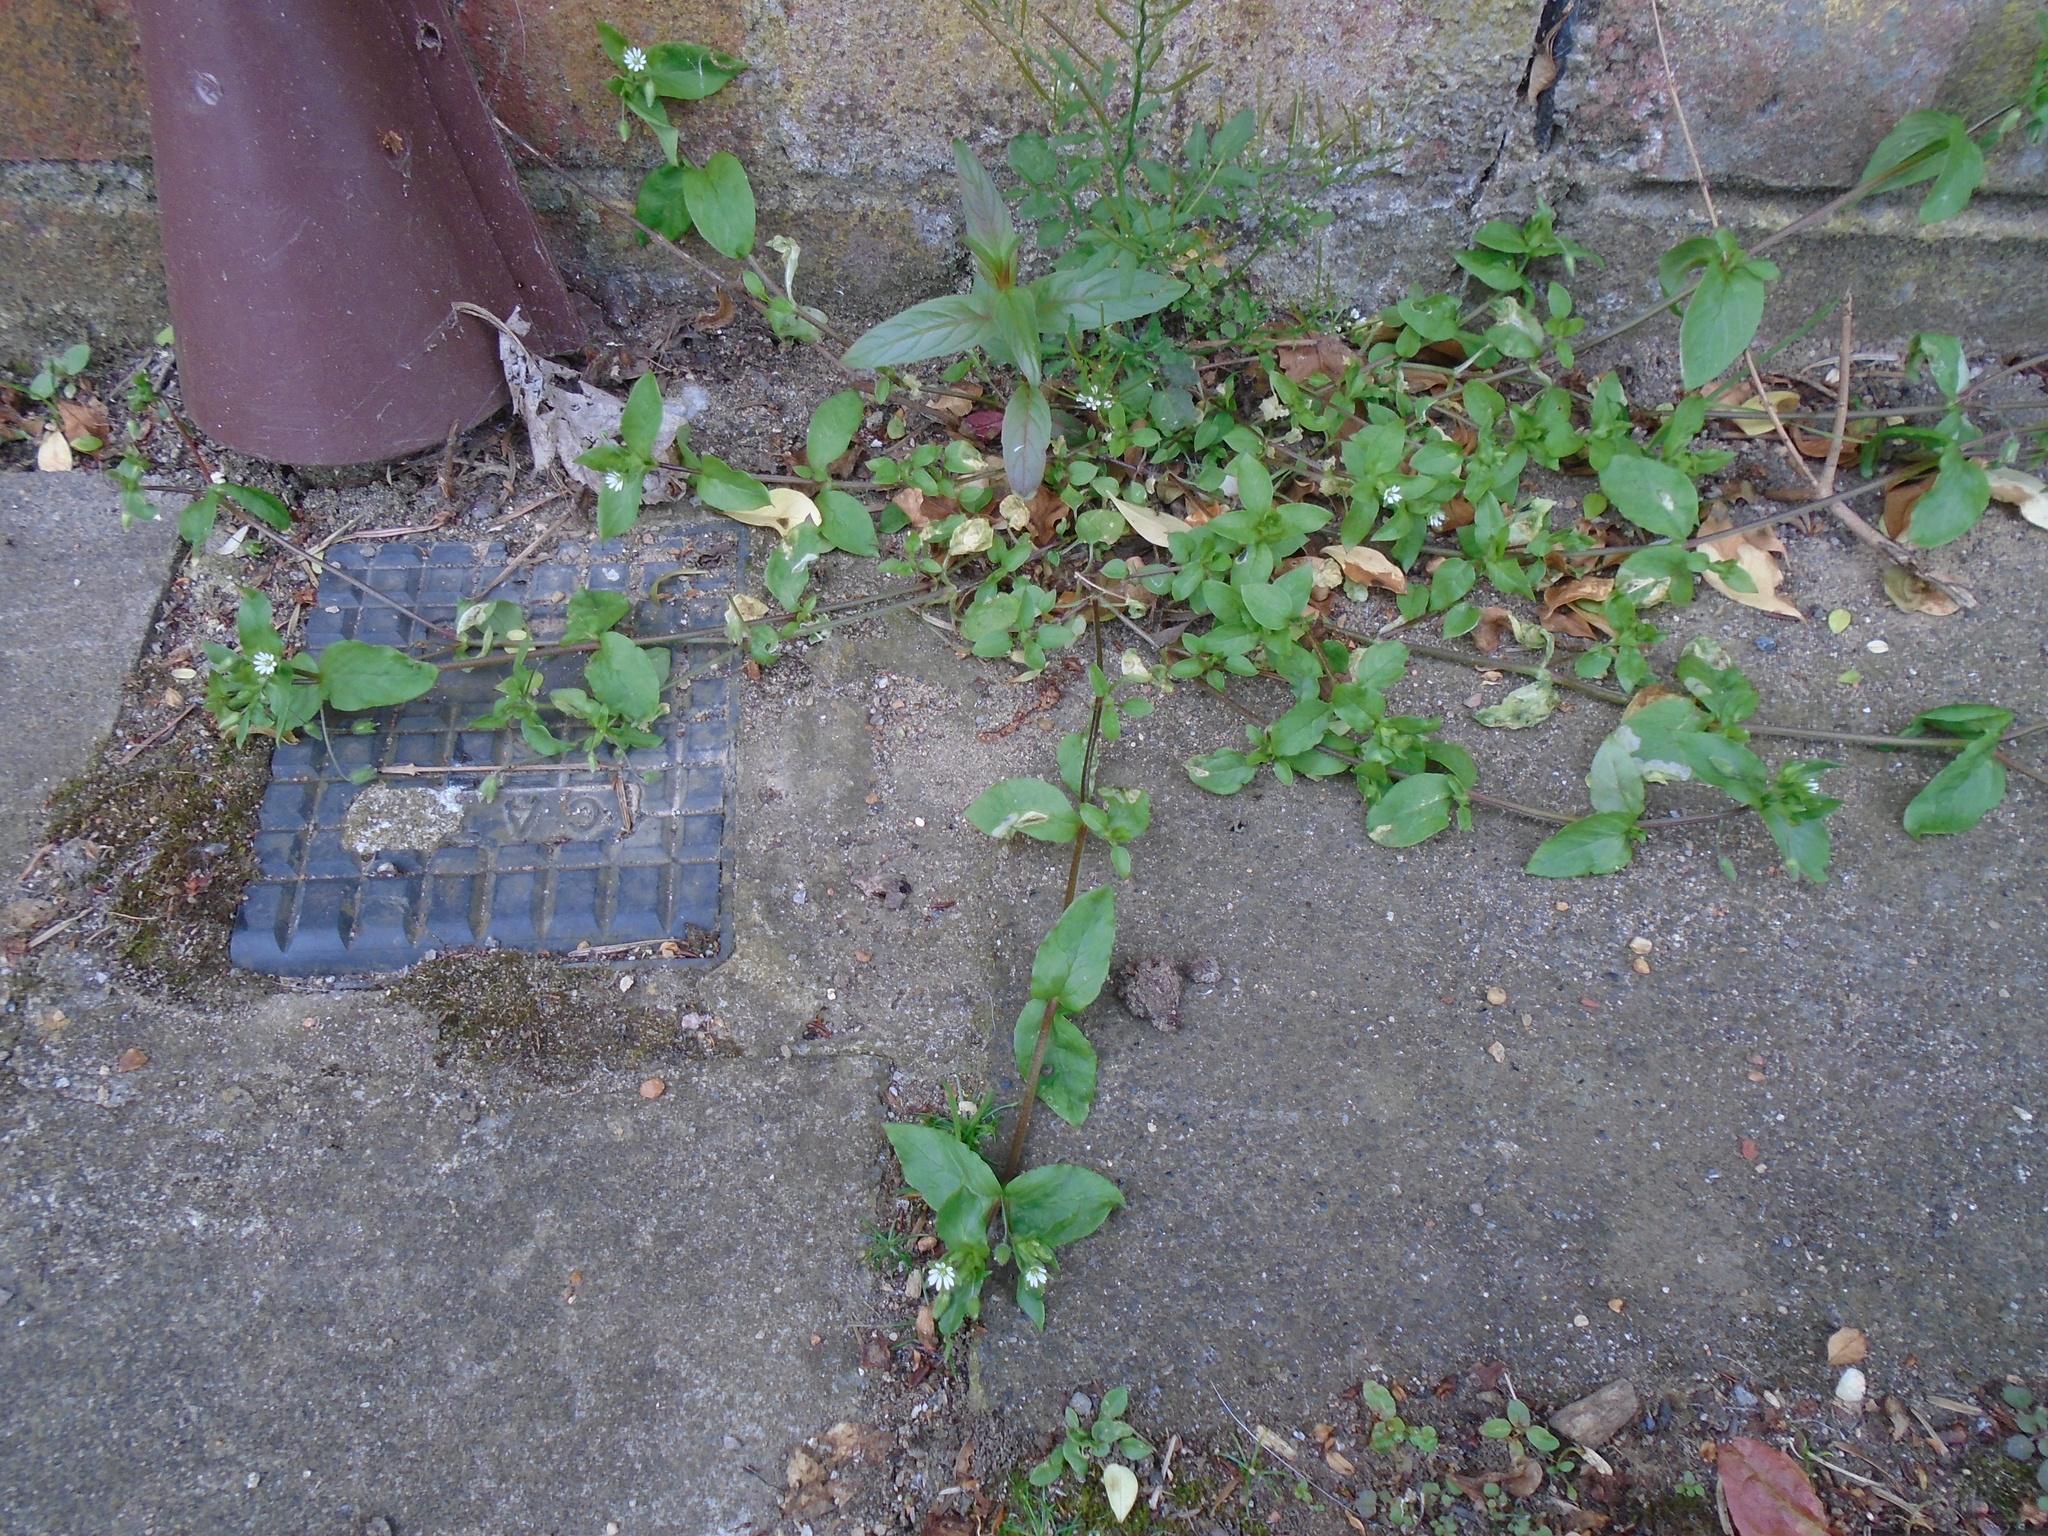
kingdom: Plantae
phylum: Tracheophyta
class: Magnoliopsida
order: Caryophyllales
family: Caryophyllaceae
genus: Stellaria
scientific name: Stellaria media
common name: Common chickweed
